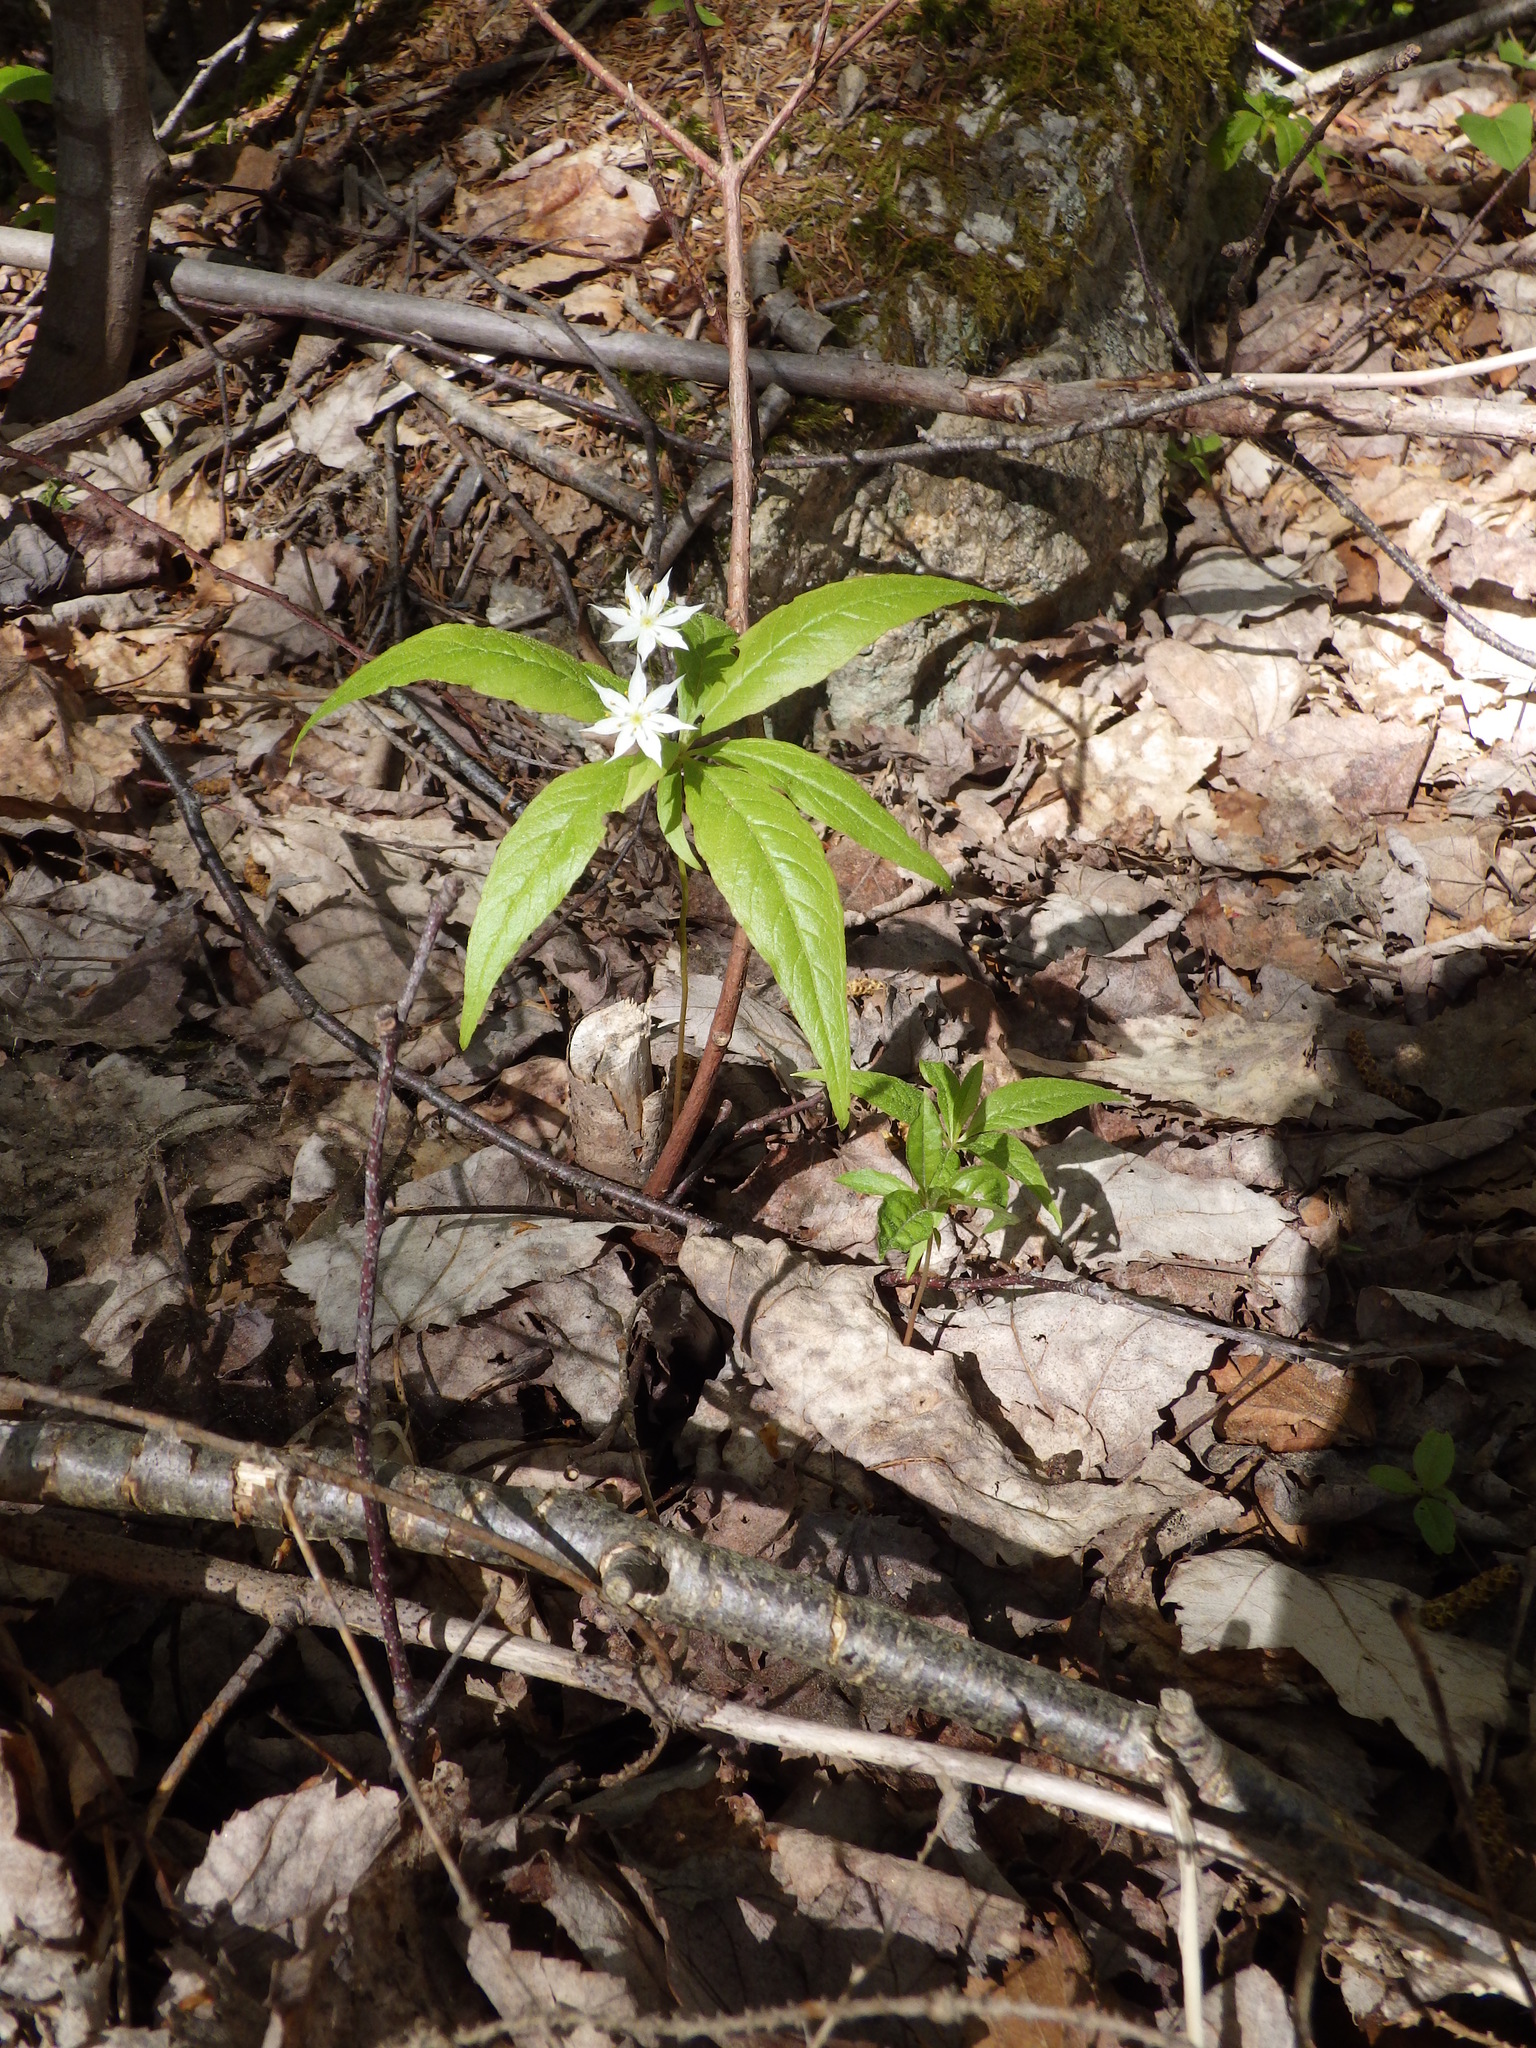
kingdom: Plantae
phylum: Tracheophyta
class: Magnoliopsida
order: Ericales
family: Primulaceae
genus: Lysimachia
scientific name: Lysimachia borealis
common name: American starflower
